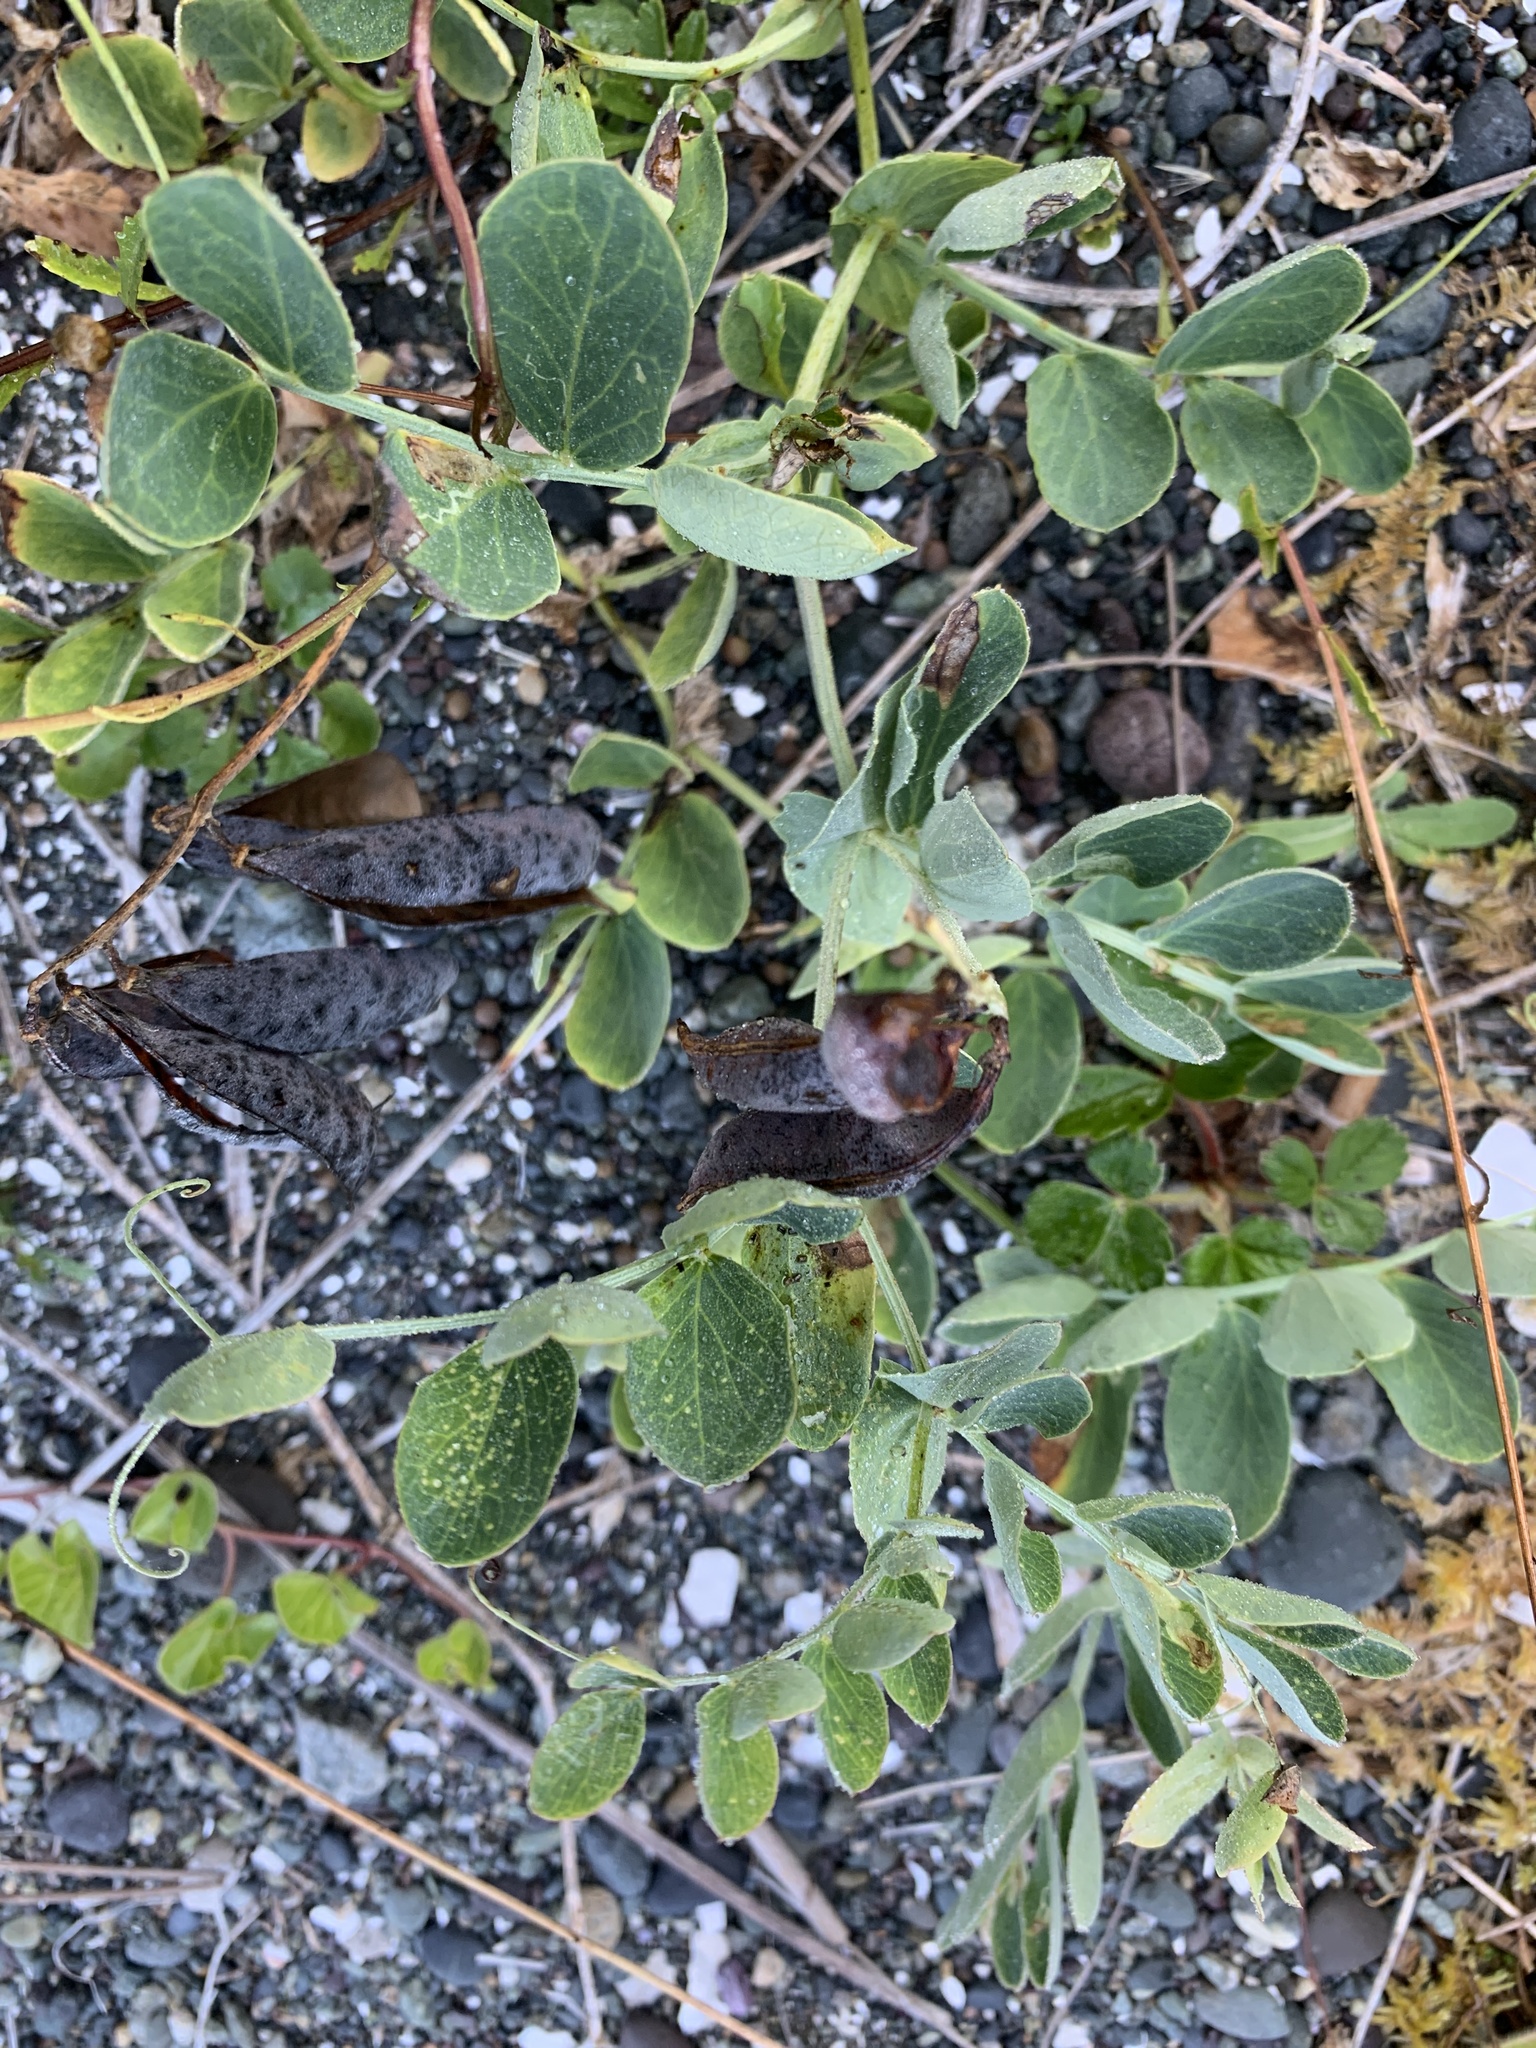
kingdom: Plantae
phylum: Tracheophyta
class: Magnoliopsida
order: Fabales
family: Fabaceae
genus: Lathyrus
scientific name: Lathyrus japonicus
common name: Sea pea
